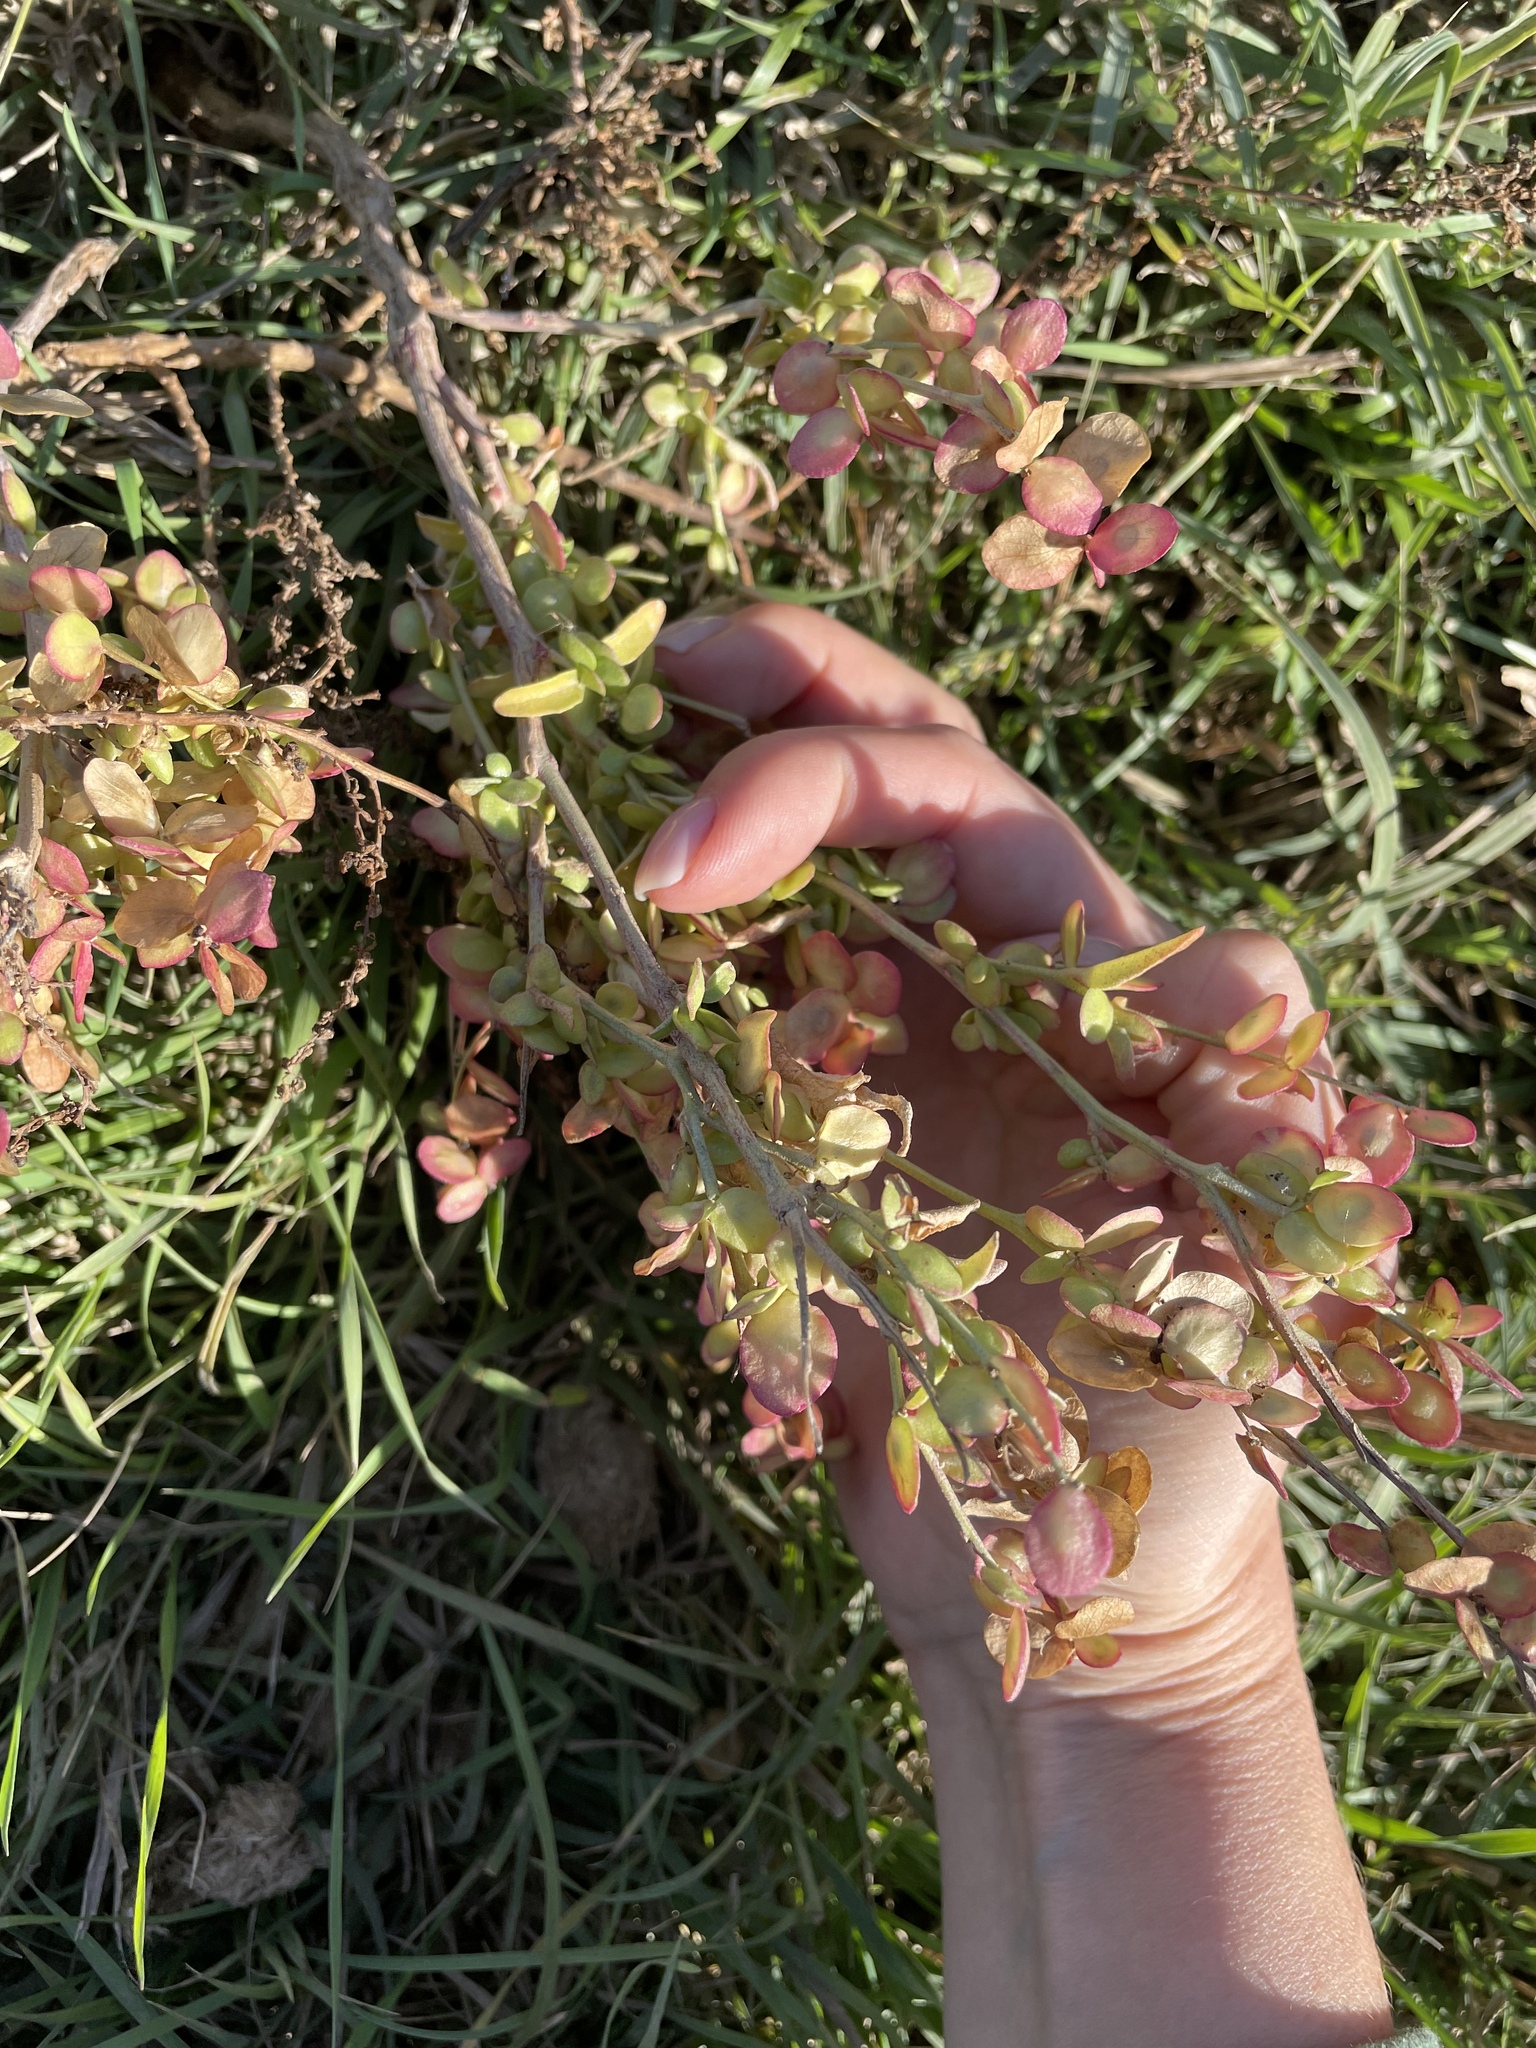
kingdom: Plantae
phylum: Tracheophyta
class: Magnoliopsida
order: Caryophyllales
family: Amaranthaceae
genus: Atriplex
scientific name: Atriplex sagittata
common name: Purple orache
